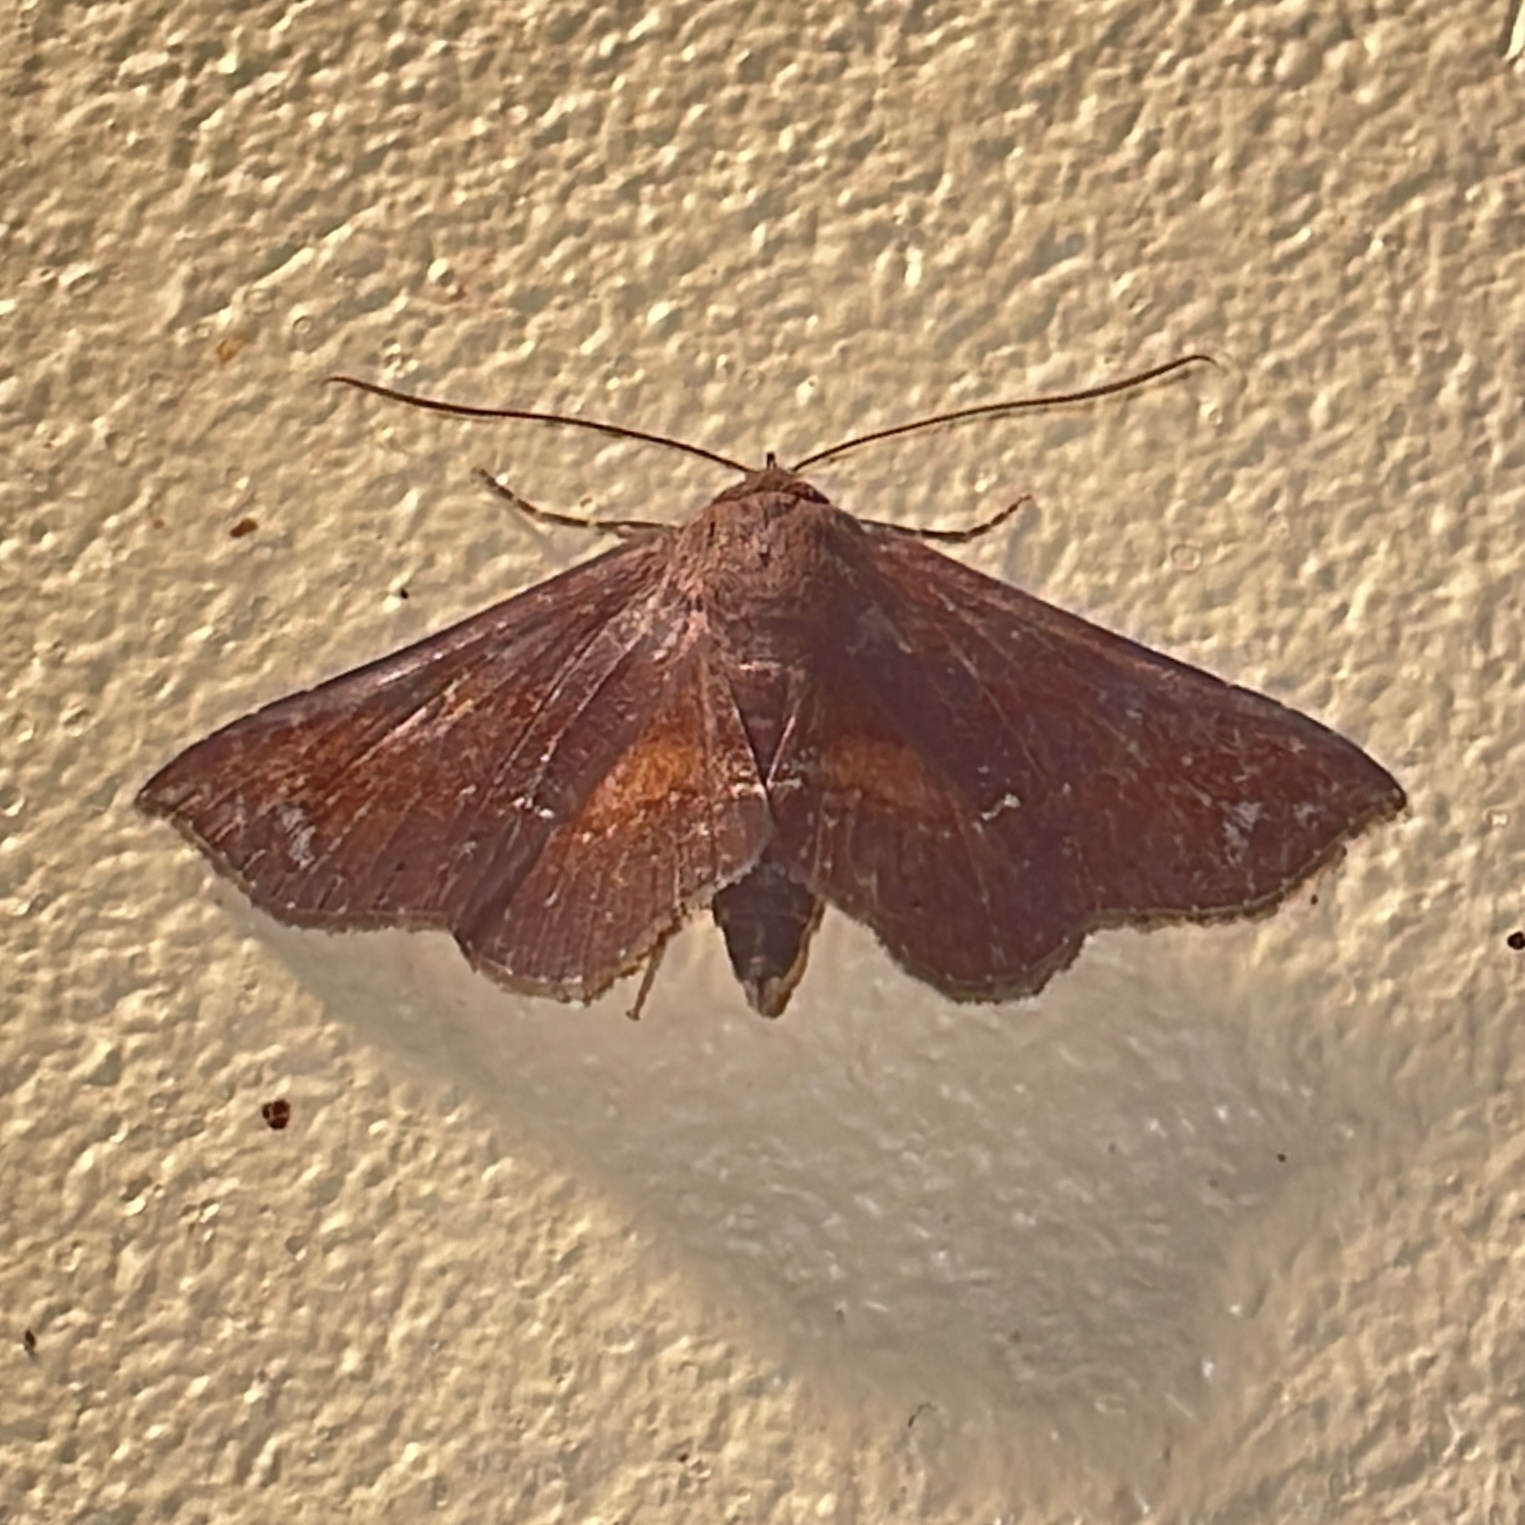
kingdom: Animalia
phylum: Arthropoda
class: Insecta
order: Lepidoptera
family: Erebidae
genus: Gabyna
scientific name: Gabyna placida
